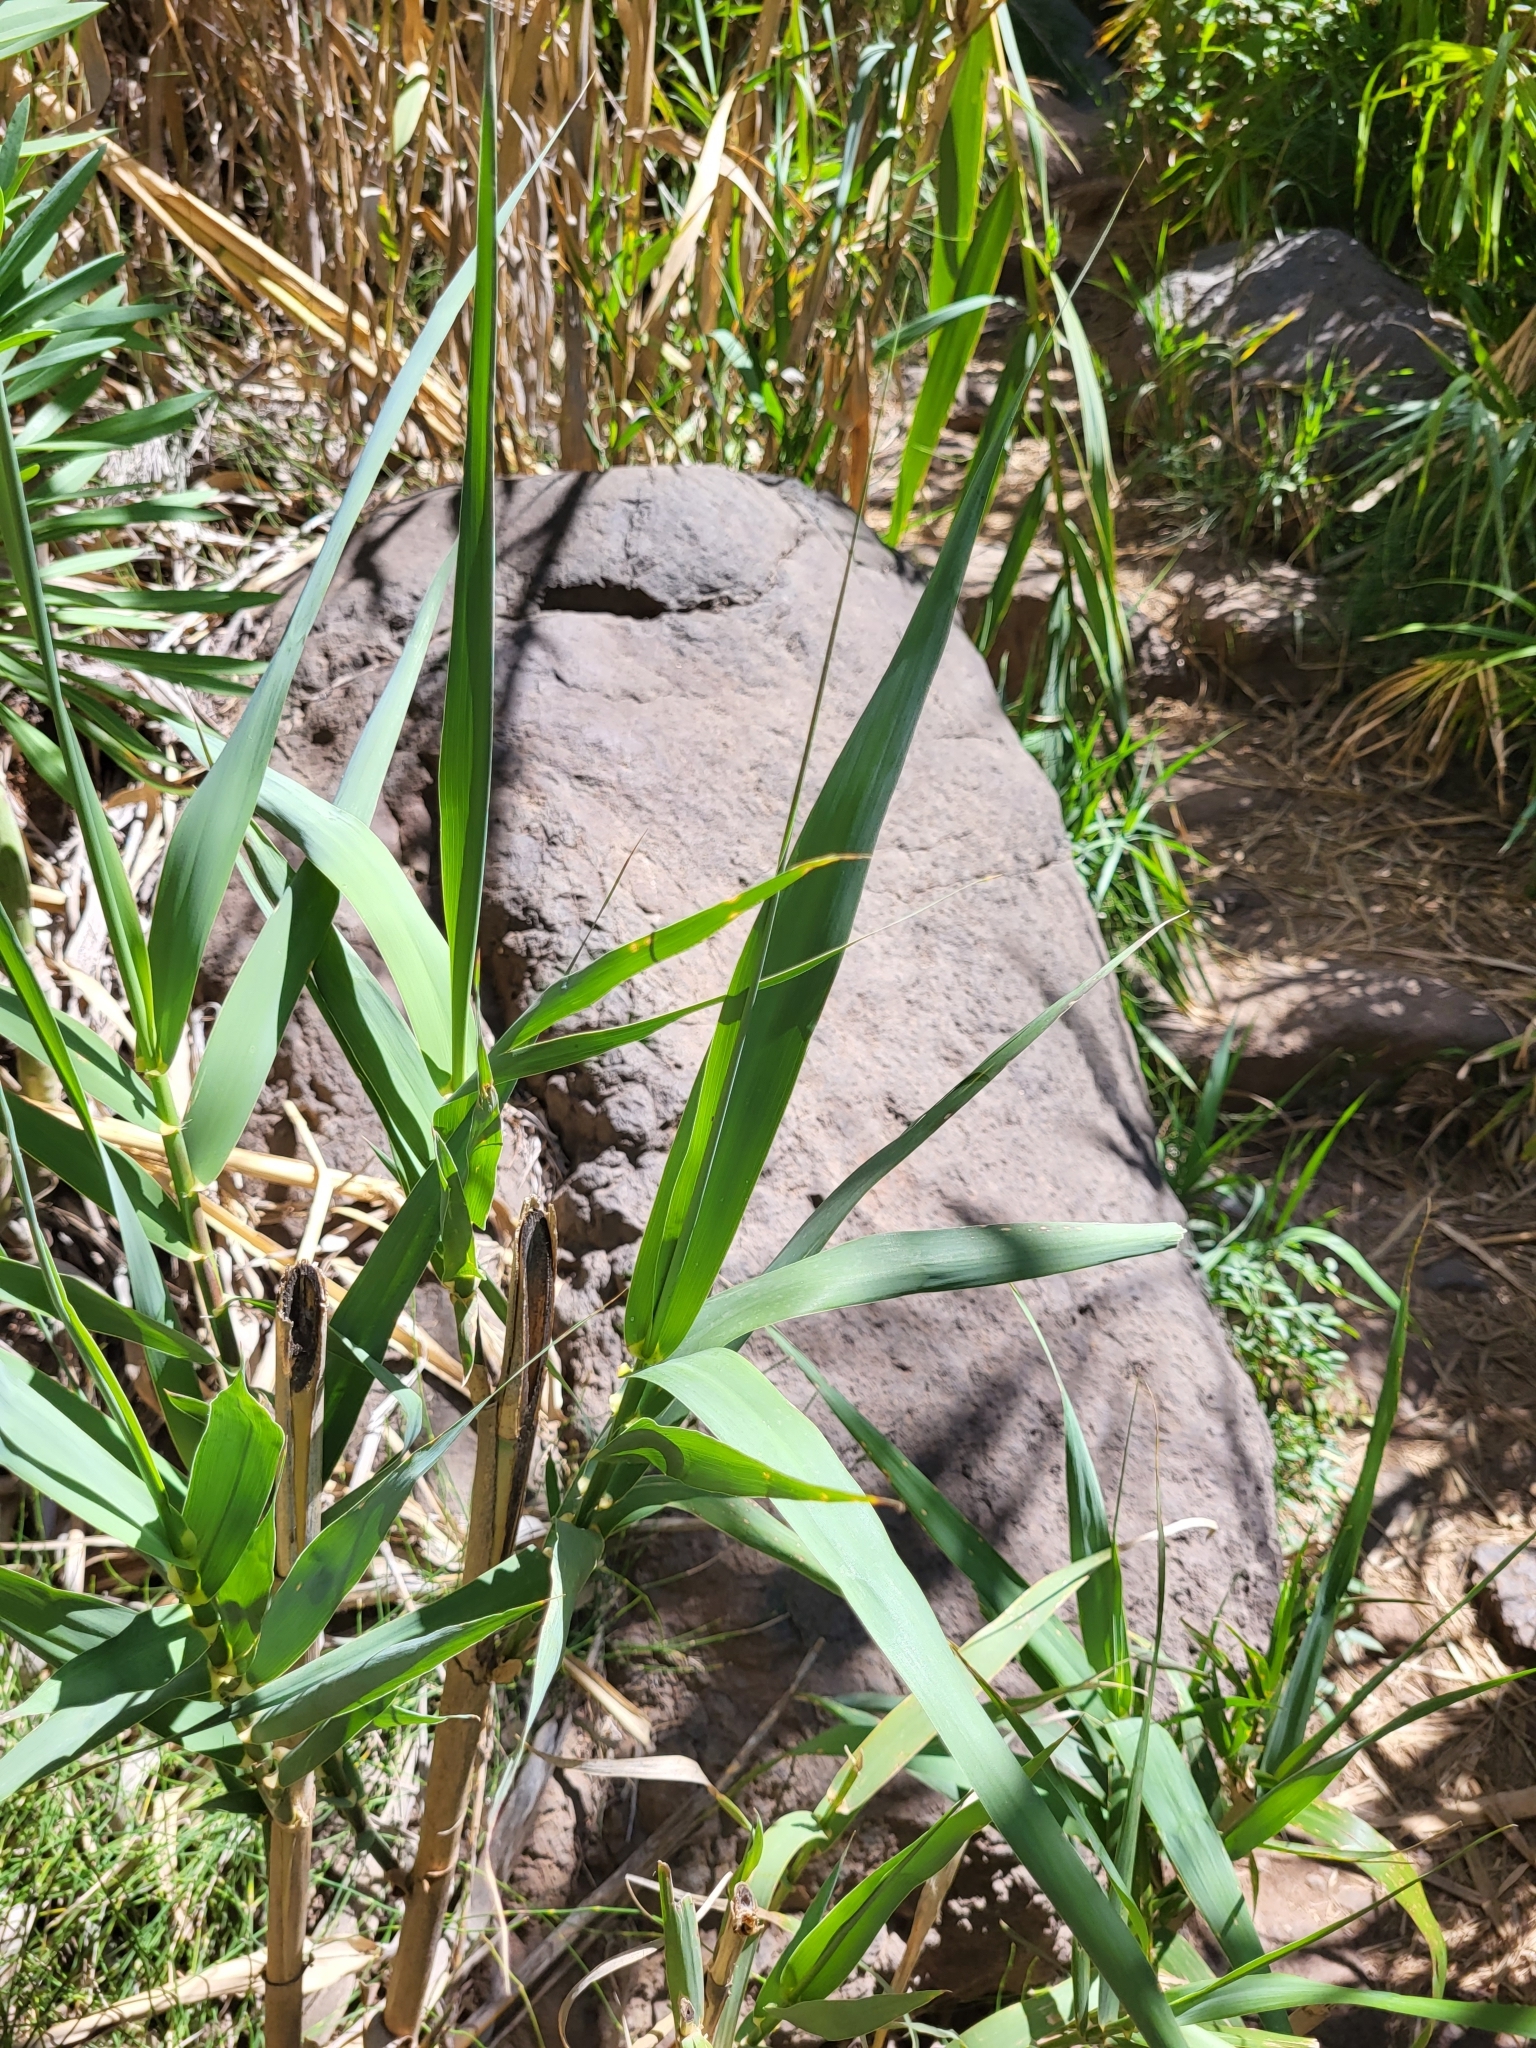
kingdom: Plantae
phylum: Tracheophyta
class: Liliopsida
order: Poales
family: Poaceae
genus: Arundo
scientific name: Arundo donax
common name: Giant reed
